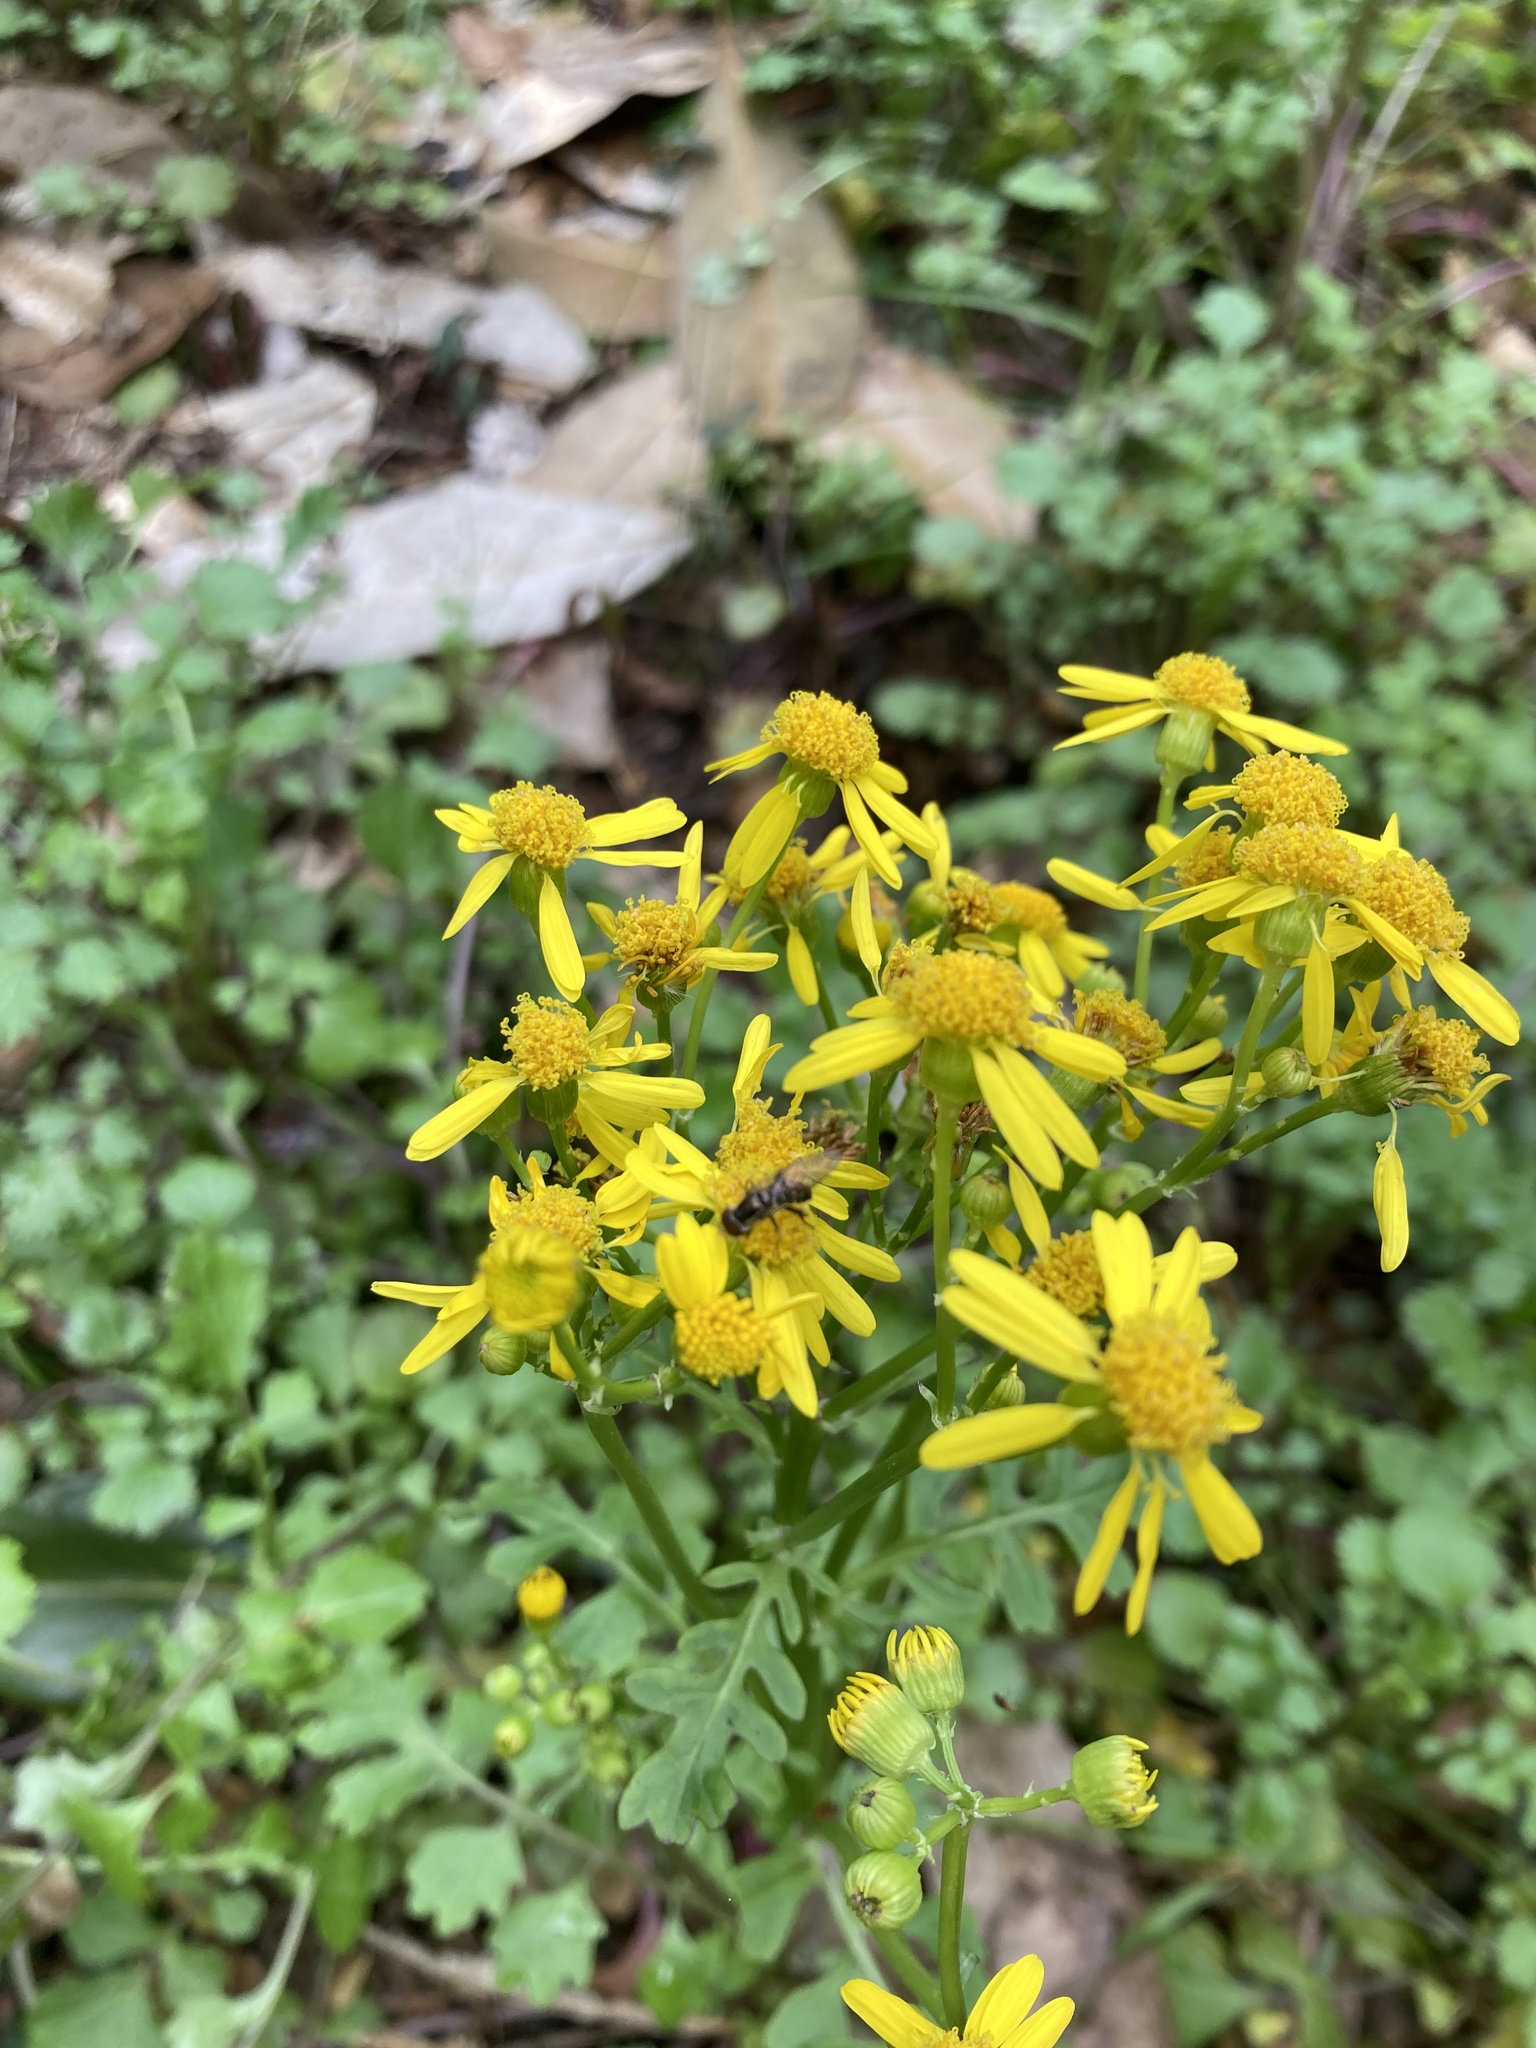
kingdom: Plantae
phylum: Tracheophyta
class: Magnoliopsida
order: Asterales
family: Asteraceae
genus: Packera
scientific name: Packera glabella
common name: Butterweed
